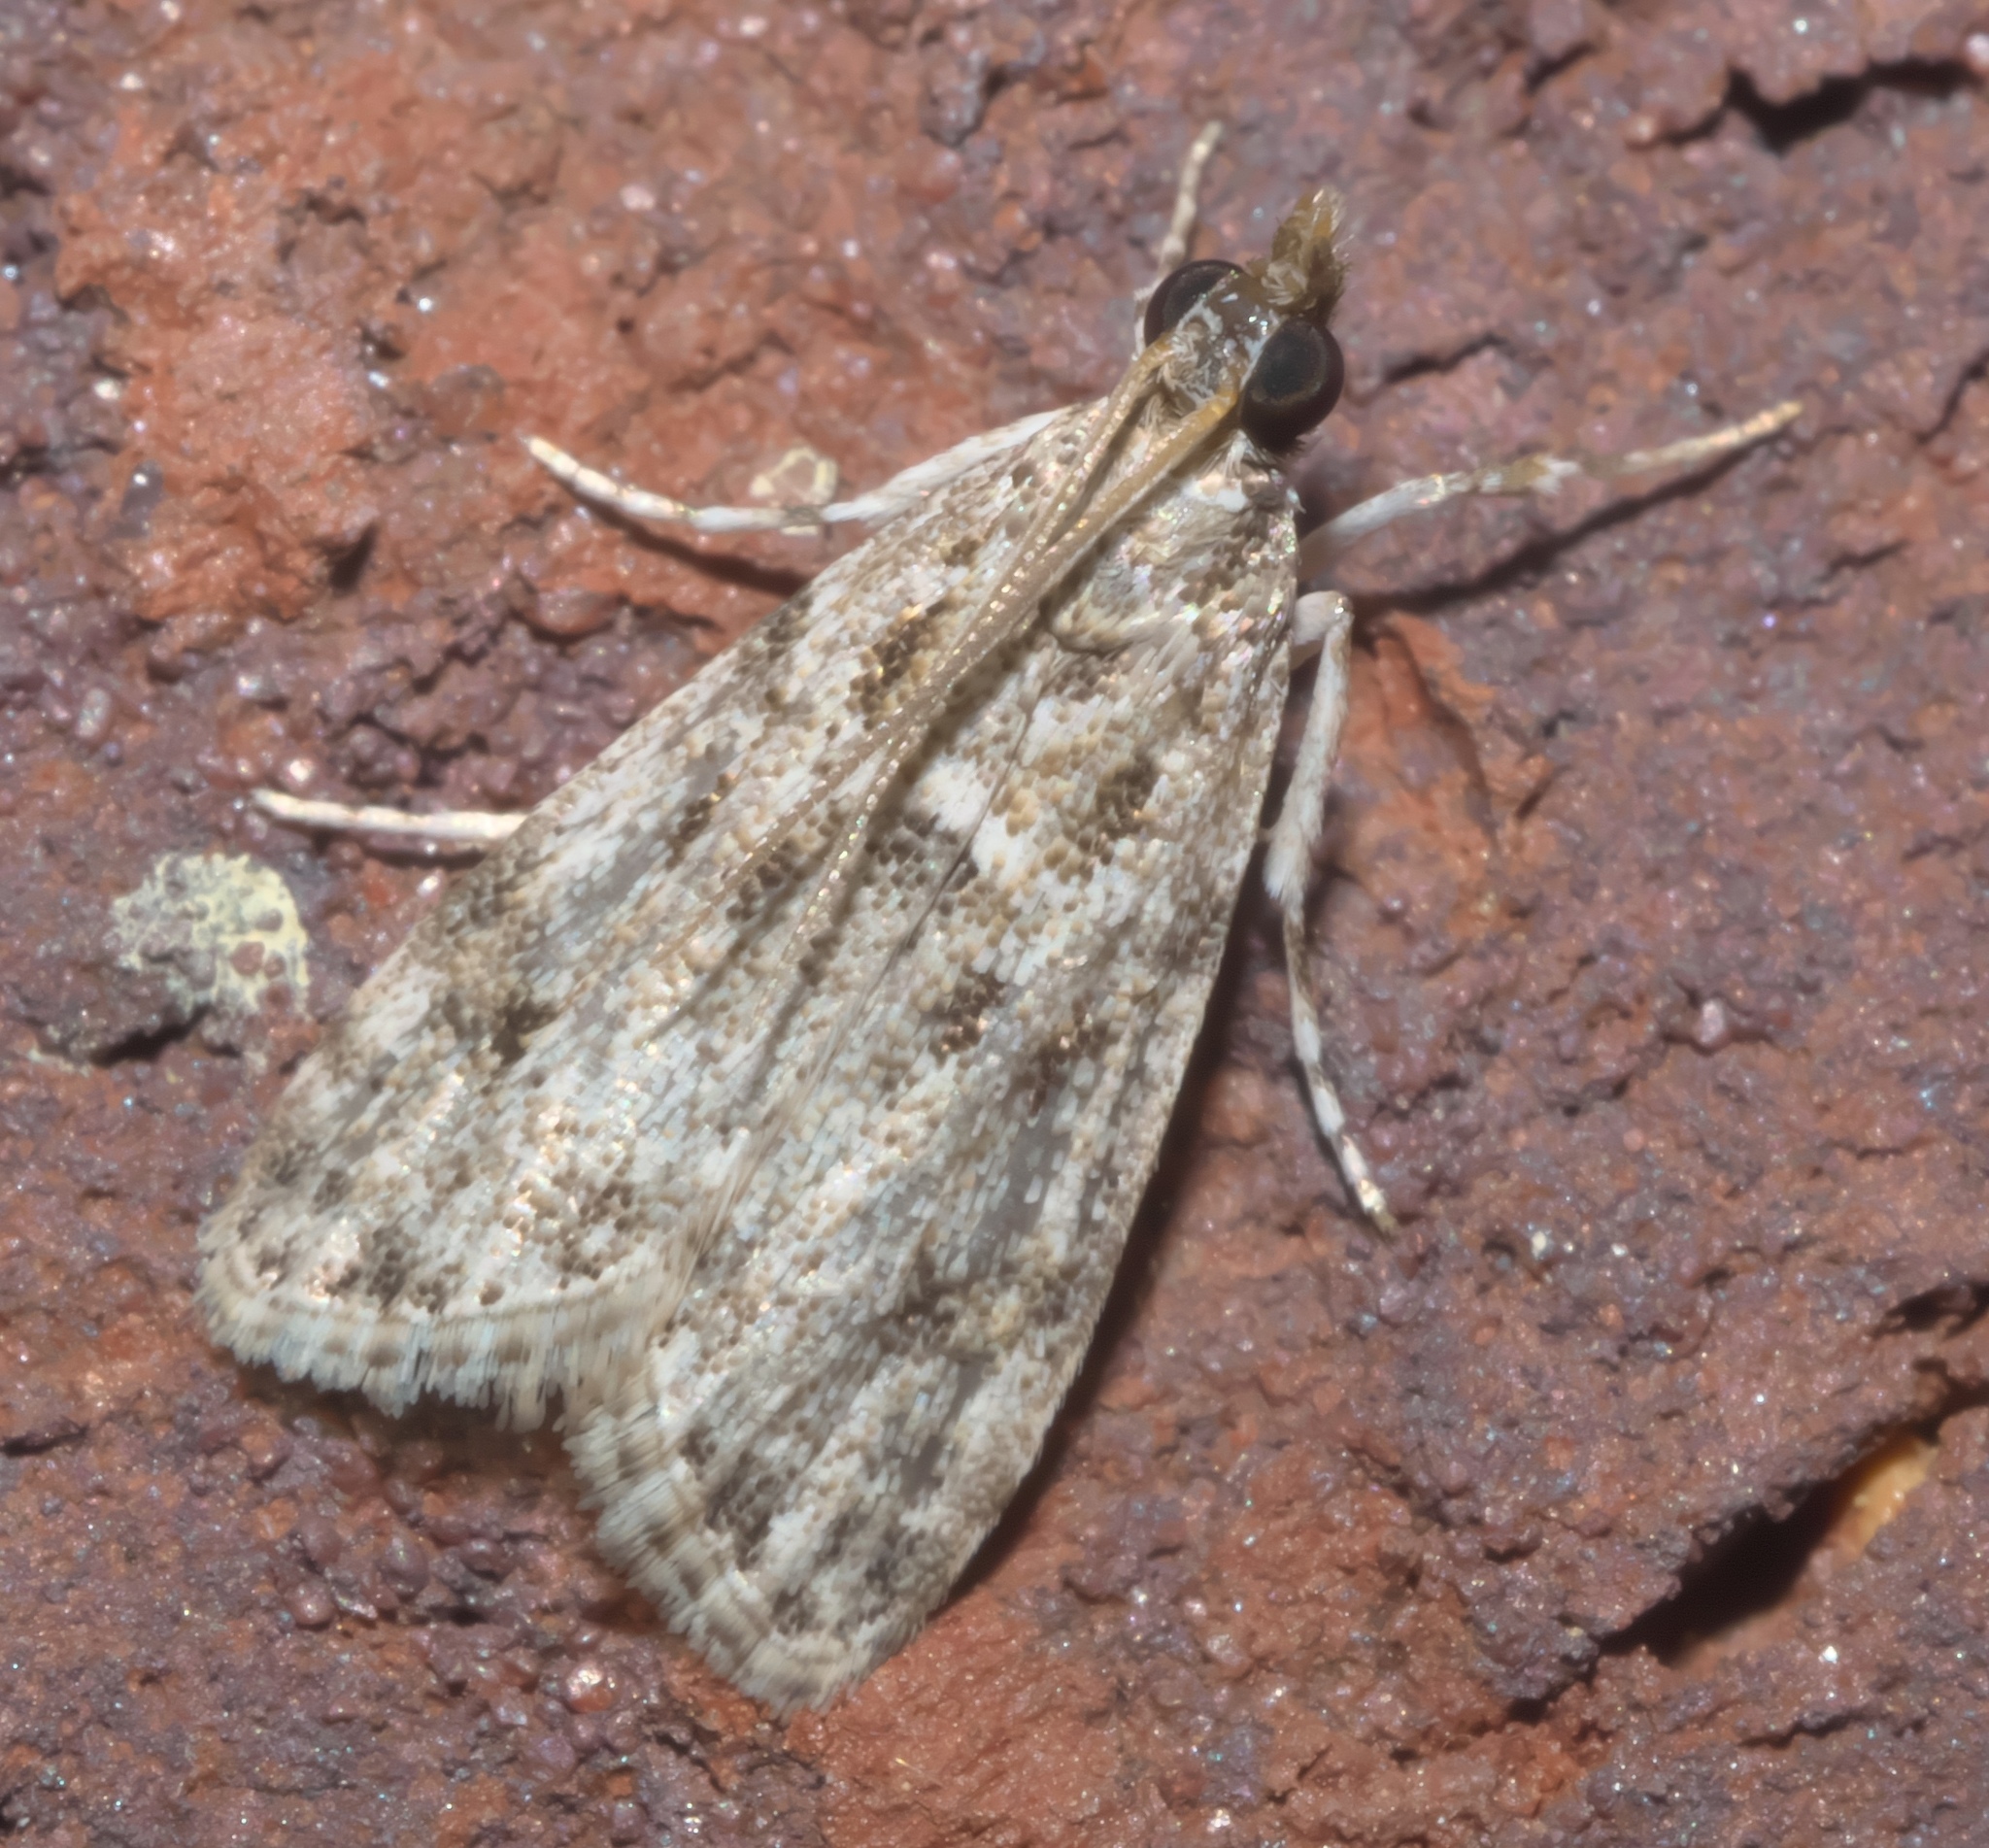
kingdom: Animalia
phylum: Arthropoda
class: Insecta
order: Lepidoptera
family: Crambidae
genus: Eudonia
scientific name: Eudonia heterosalis
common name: Mcdunnough's eudonia
